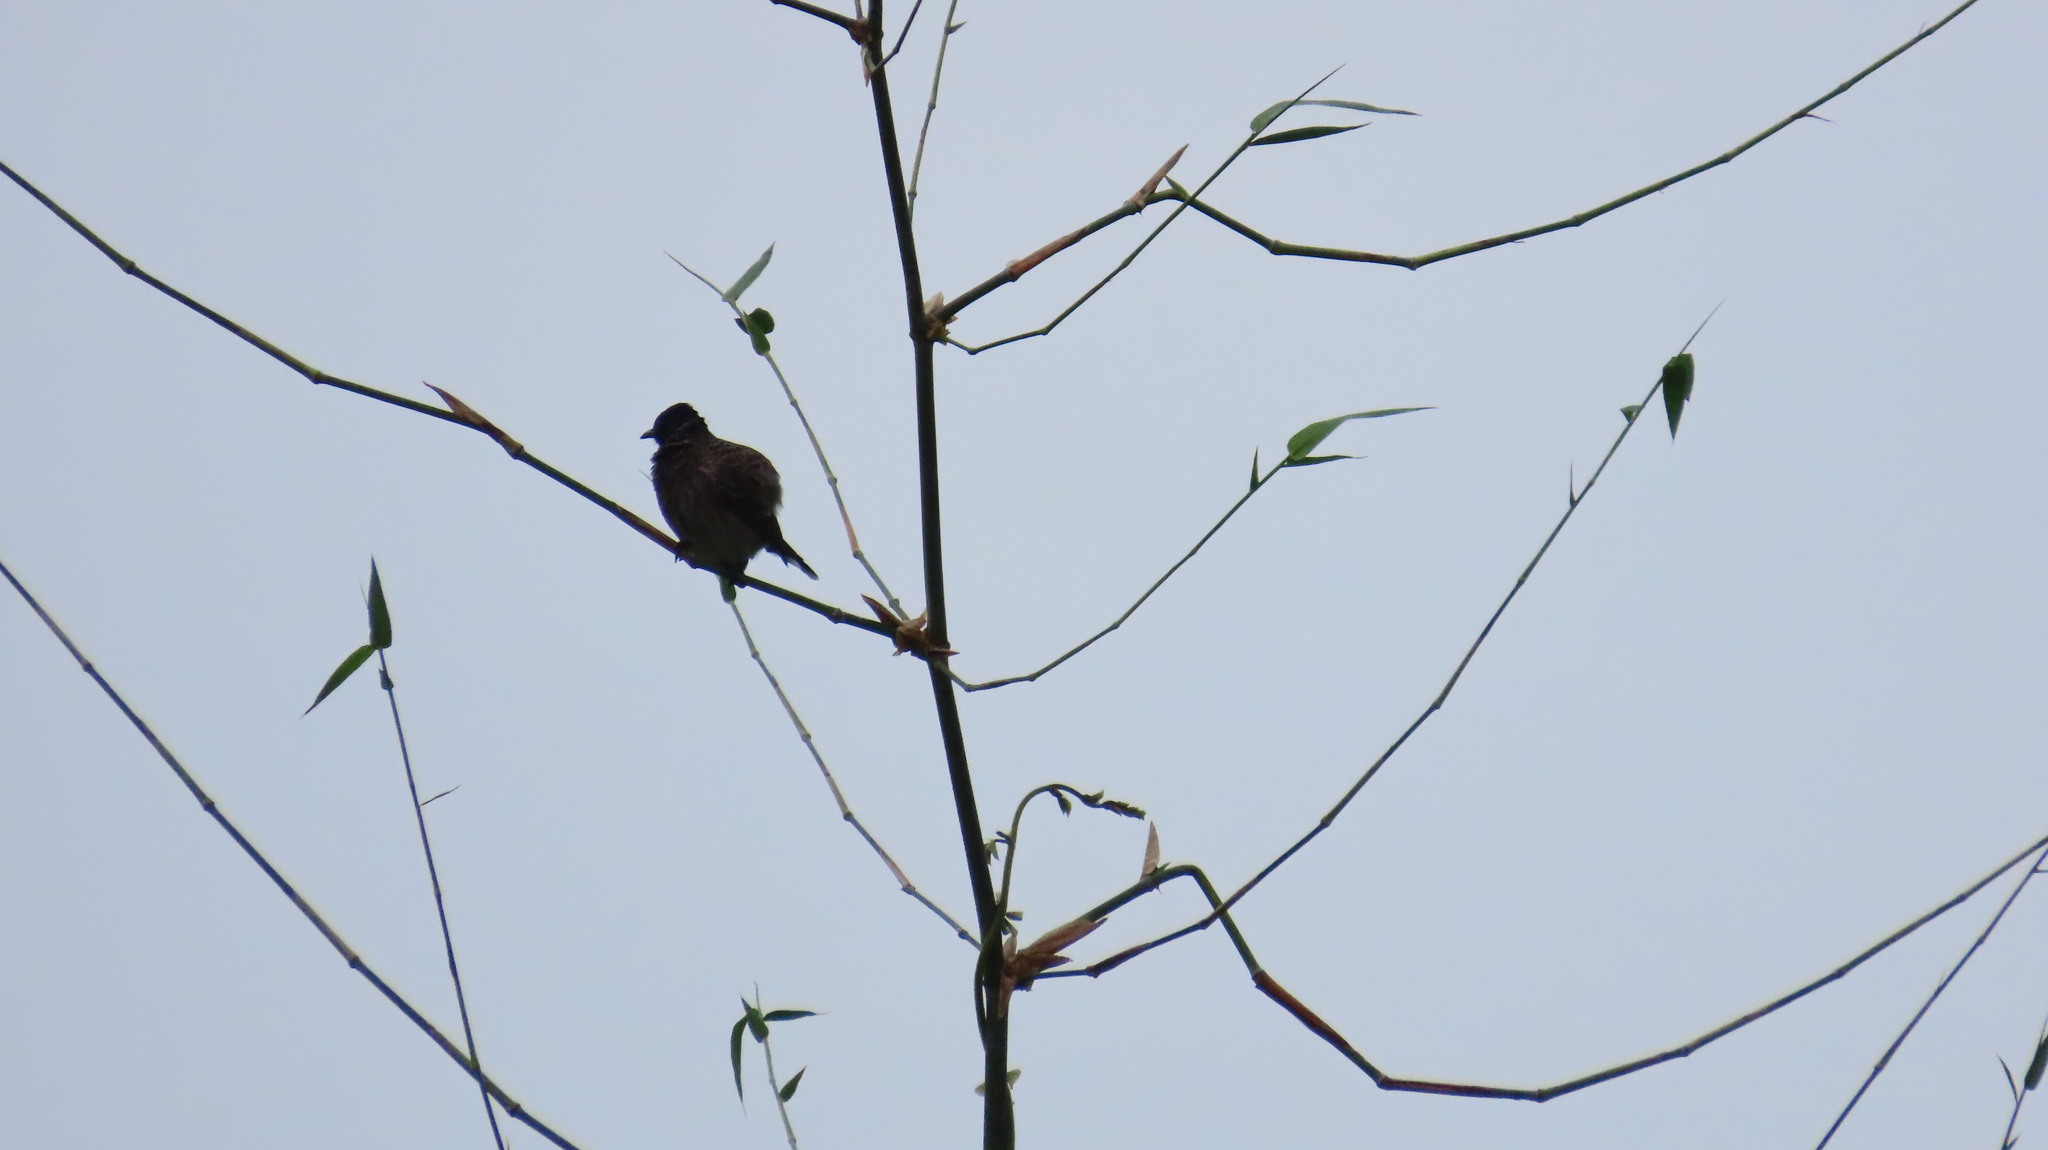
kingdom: Animalia
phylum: Chordata
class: Aves
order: Passeriformes
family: Pycnonotidae
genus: Pycnonotus
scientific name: Pycnonotus cafer
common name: Red-vented bulbul
